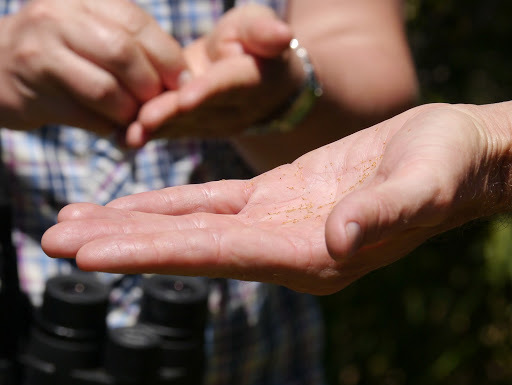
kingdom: Plantae
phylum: Tracheophyta
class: Magnoliopsida
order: Myrtales
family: Myrtaceae
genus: Metrosideros
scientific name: Metrosideros polymorpha
